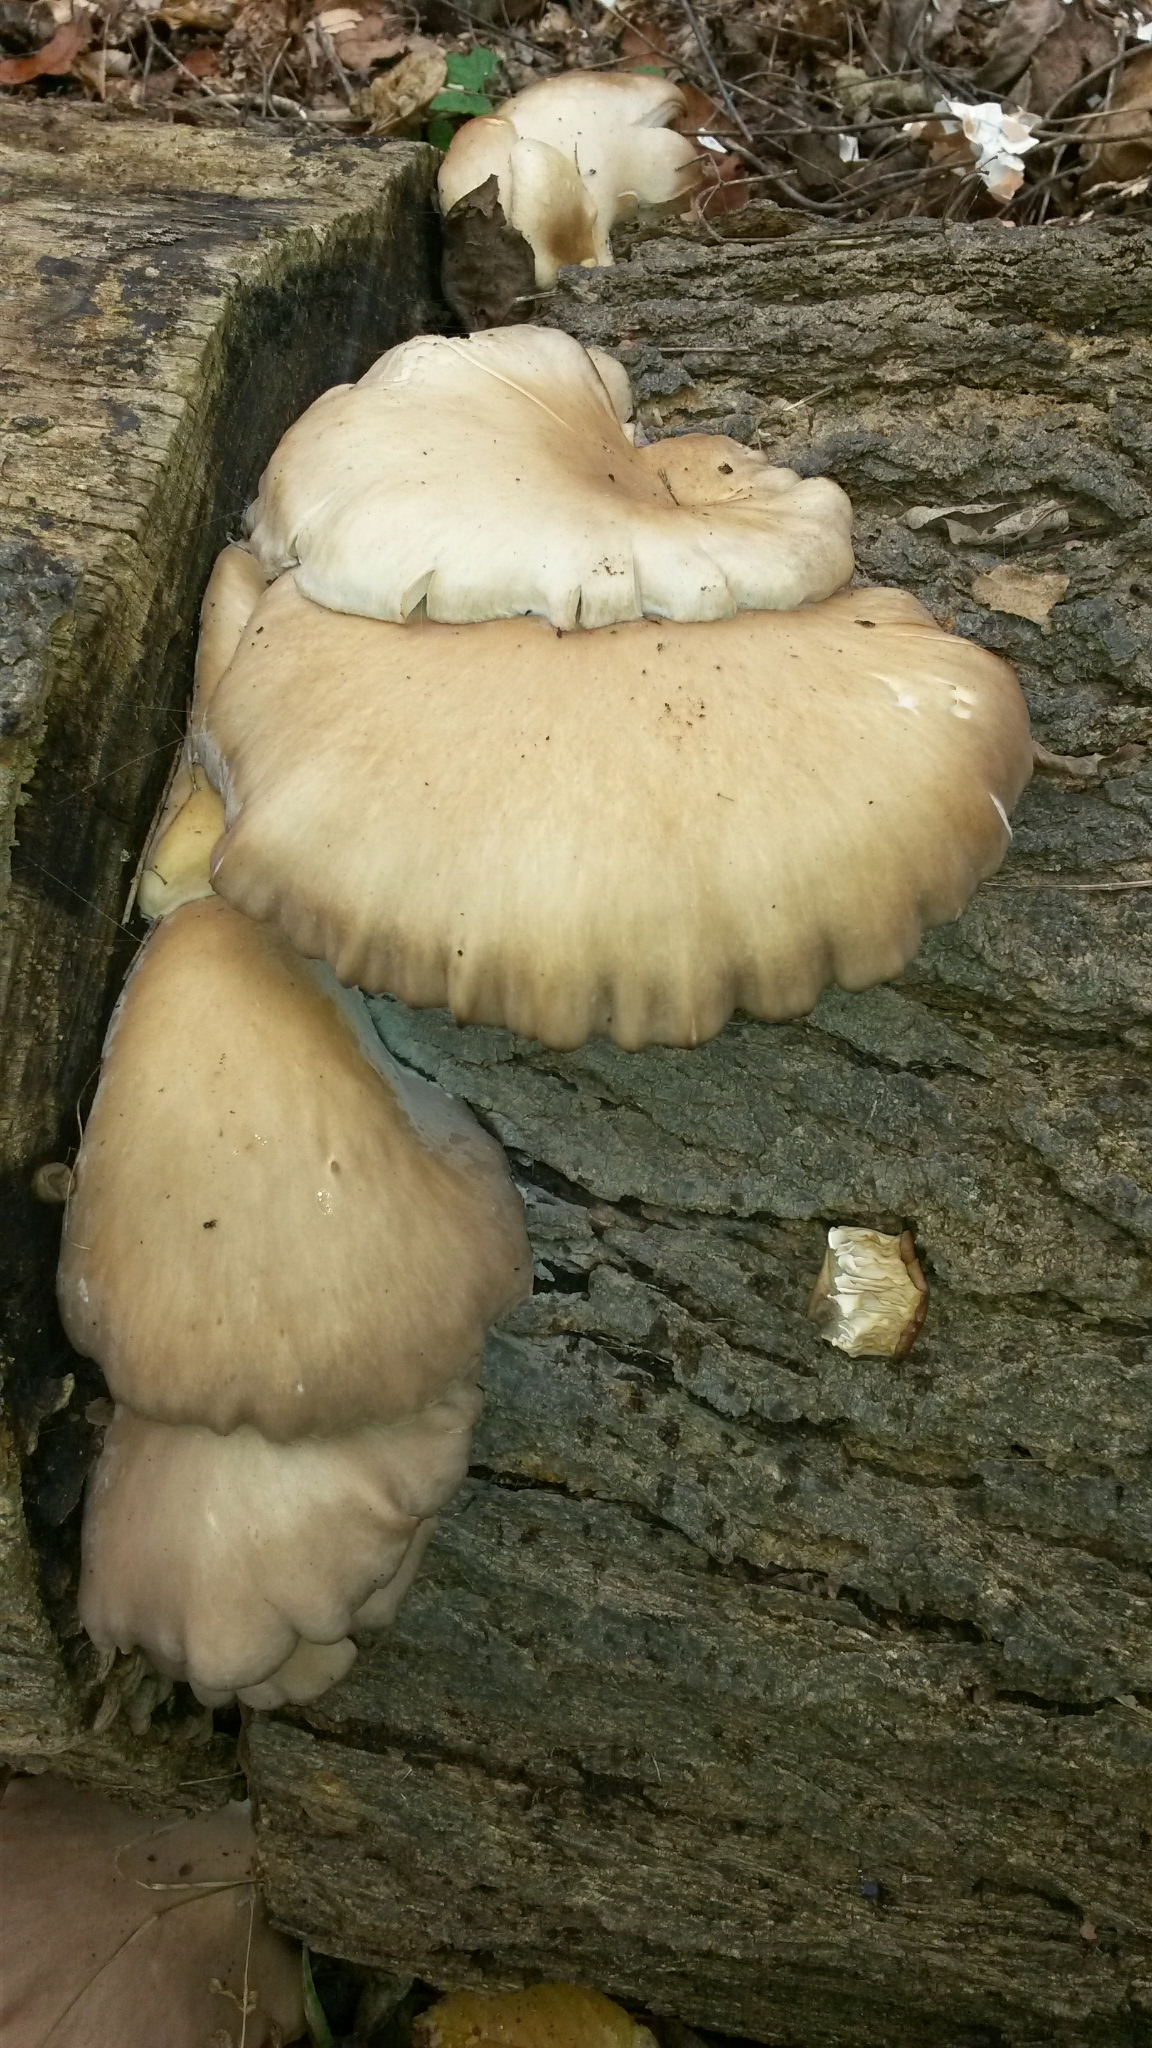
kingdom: Fungi
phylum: Basidiomycota
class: Agaricomycetes
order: Agaricales
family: Pleurotaceae
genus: Pleurotus
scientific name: Pleurotus ostreatus
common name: Oyster mushroom
